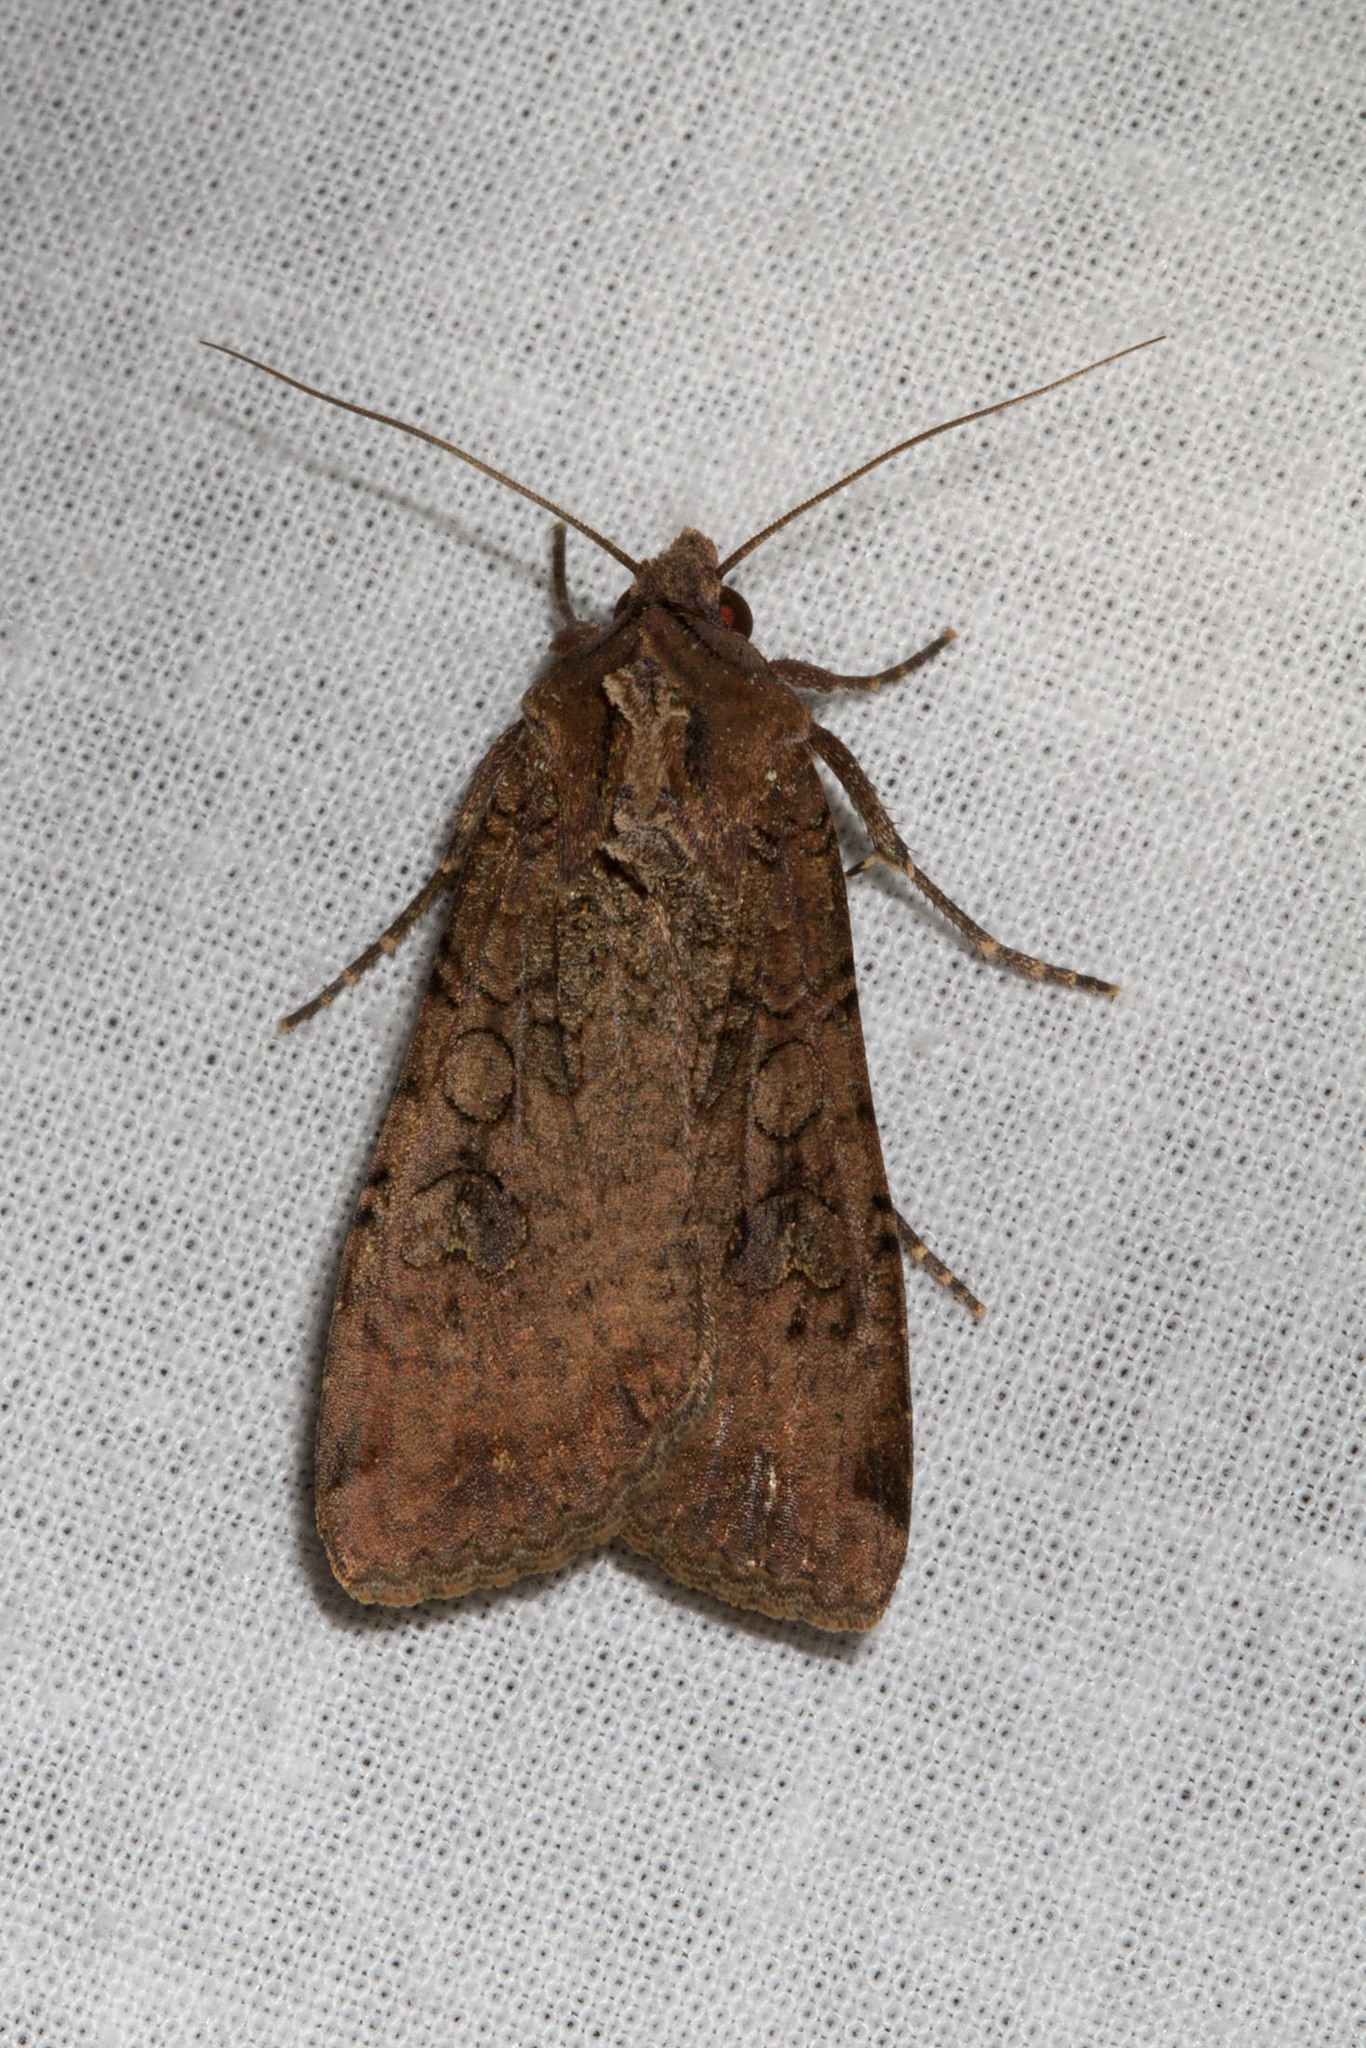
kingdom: Animalia
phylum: Arthropoda
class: Insecta
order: Lepidoptera
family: Noctuidae
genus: Peridroma
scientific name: Peridroma saucia
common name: Pearly underwing
